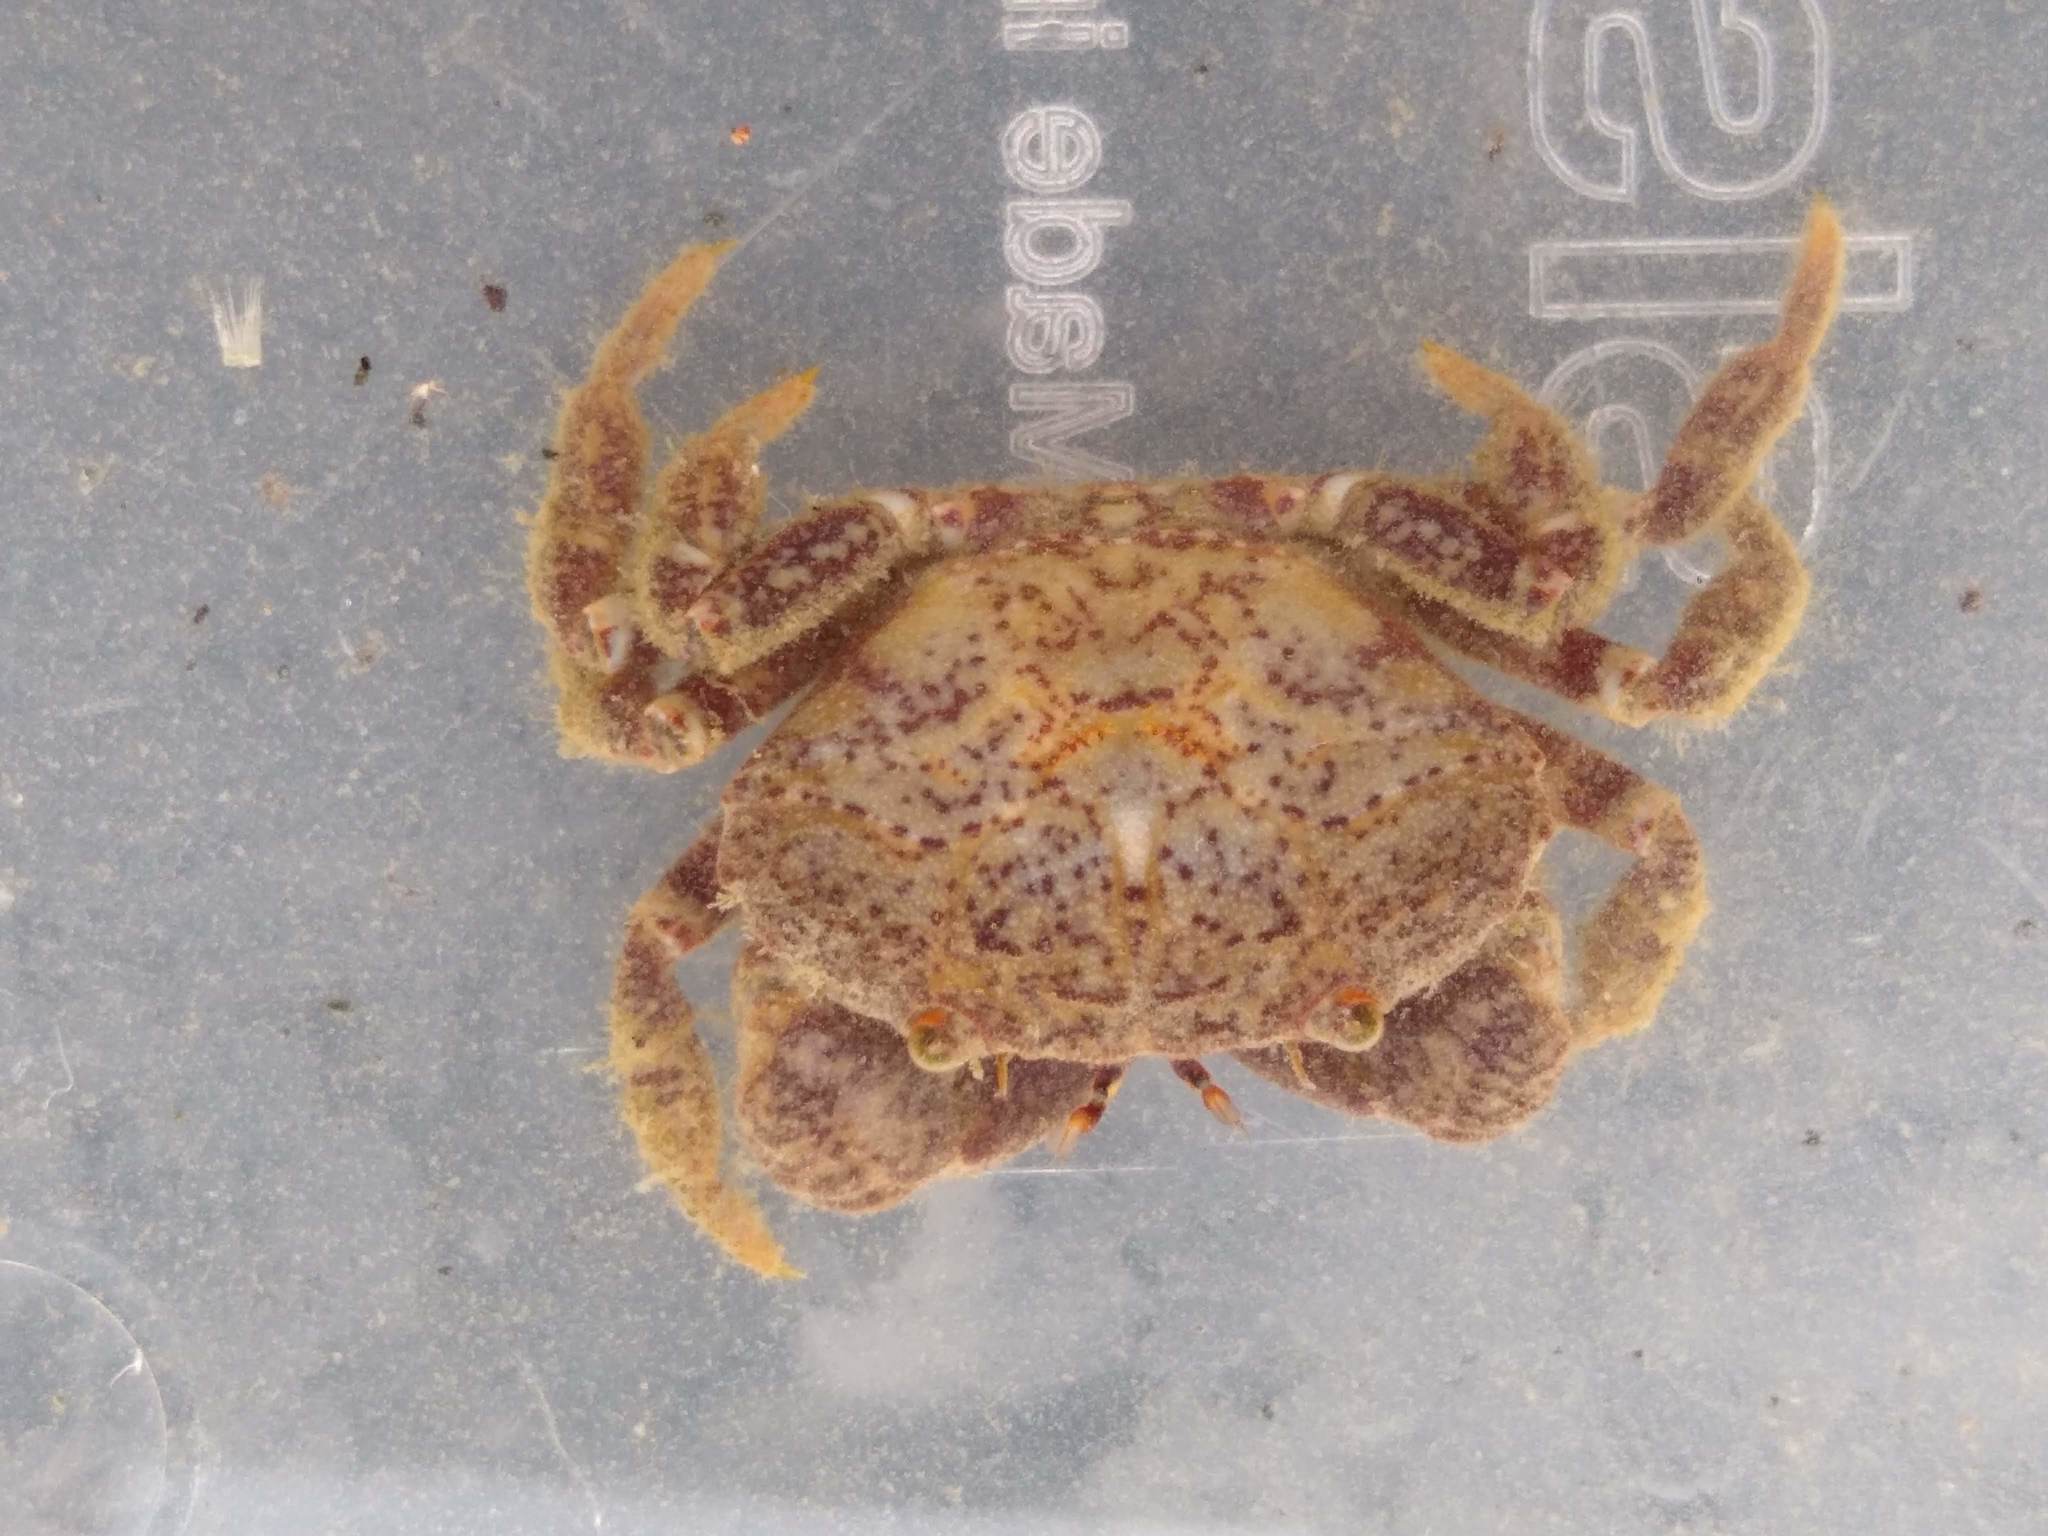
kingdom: Animalia
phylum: Arthropoda
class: Malacostraca
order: Decapoda
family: Oziidae
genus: Ozius
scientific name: Ozius deplanatus
